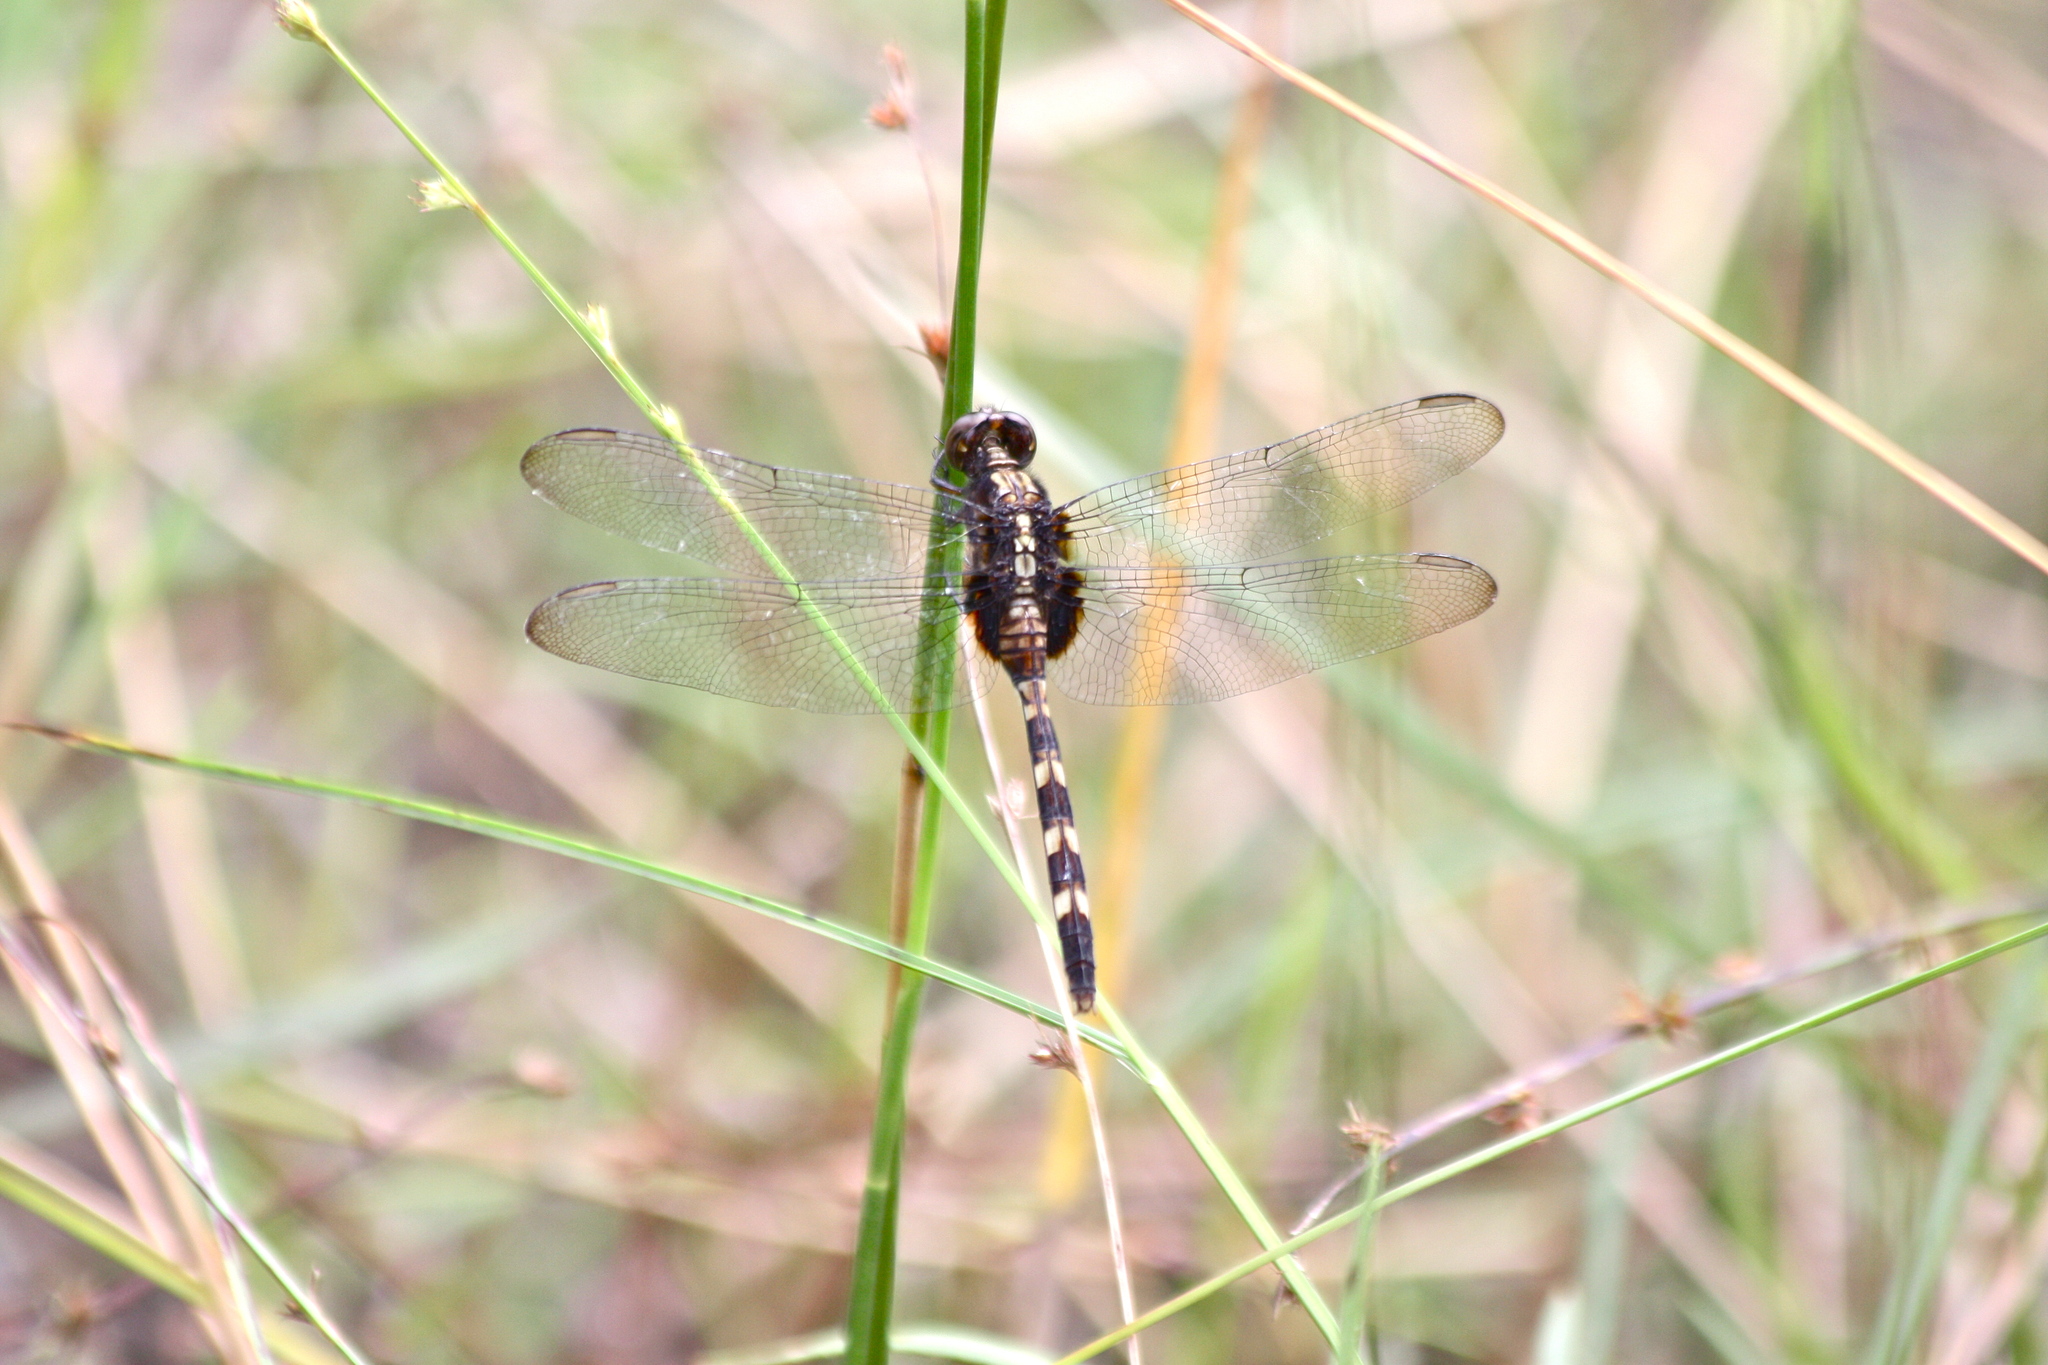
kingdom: Animalia
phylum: Arthropoda
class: Insecta
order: Odonata
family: Libellulidae
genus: Erythemis
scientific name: Erythemis plebeja
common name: Pin-tailed pondhawk
